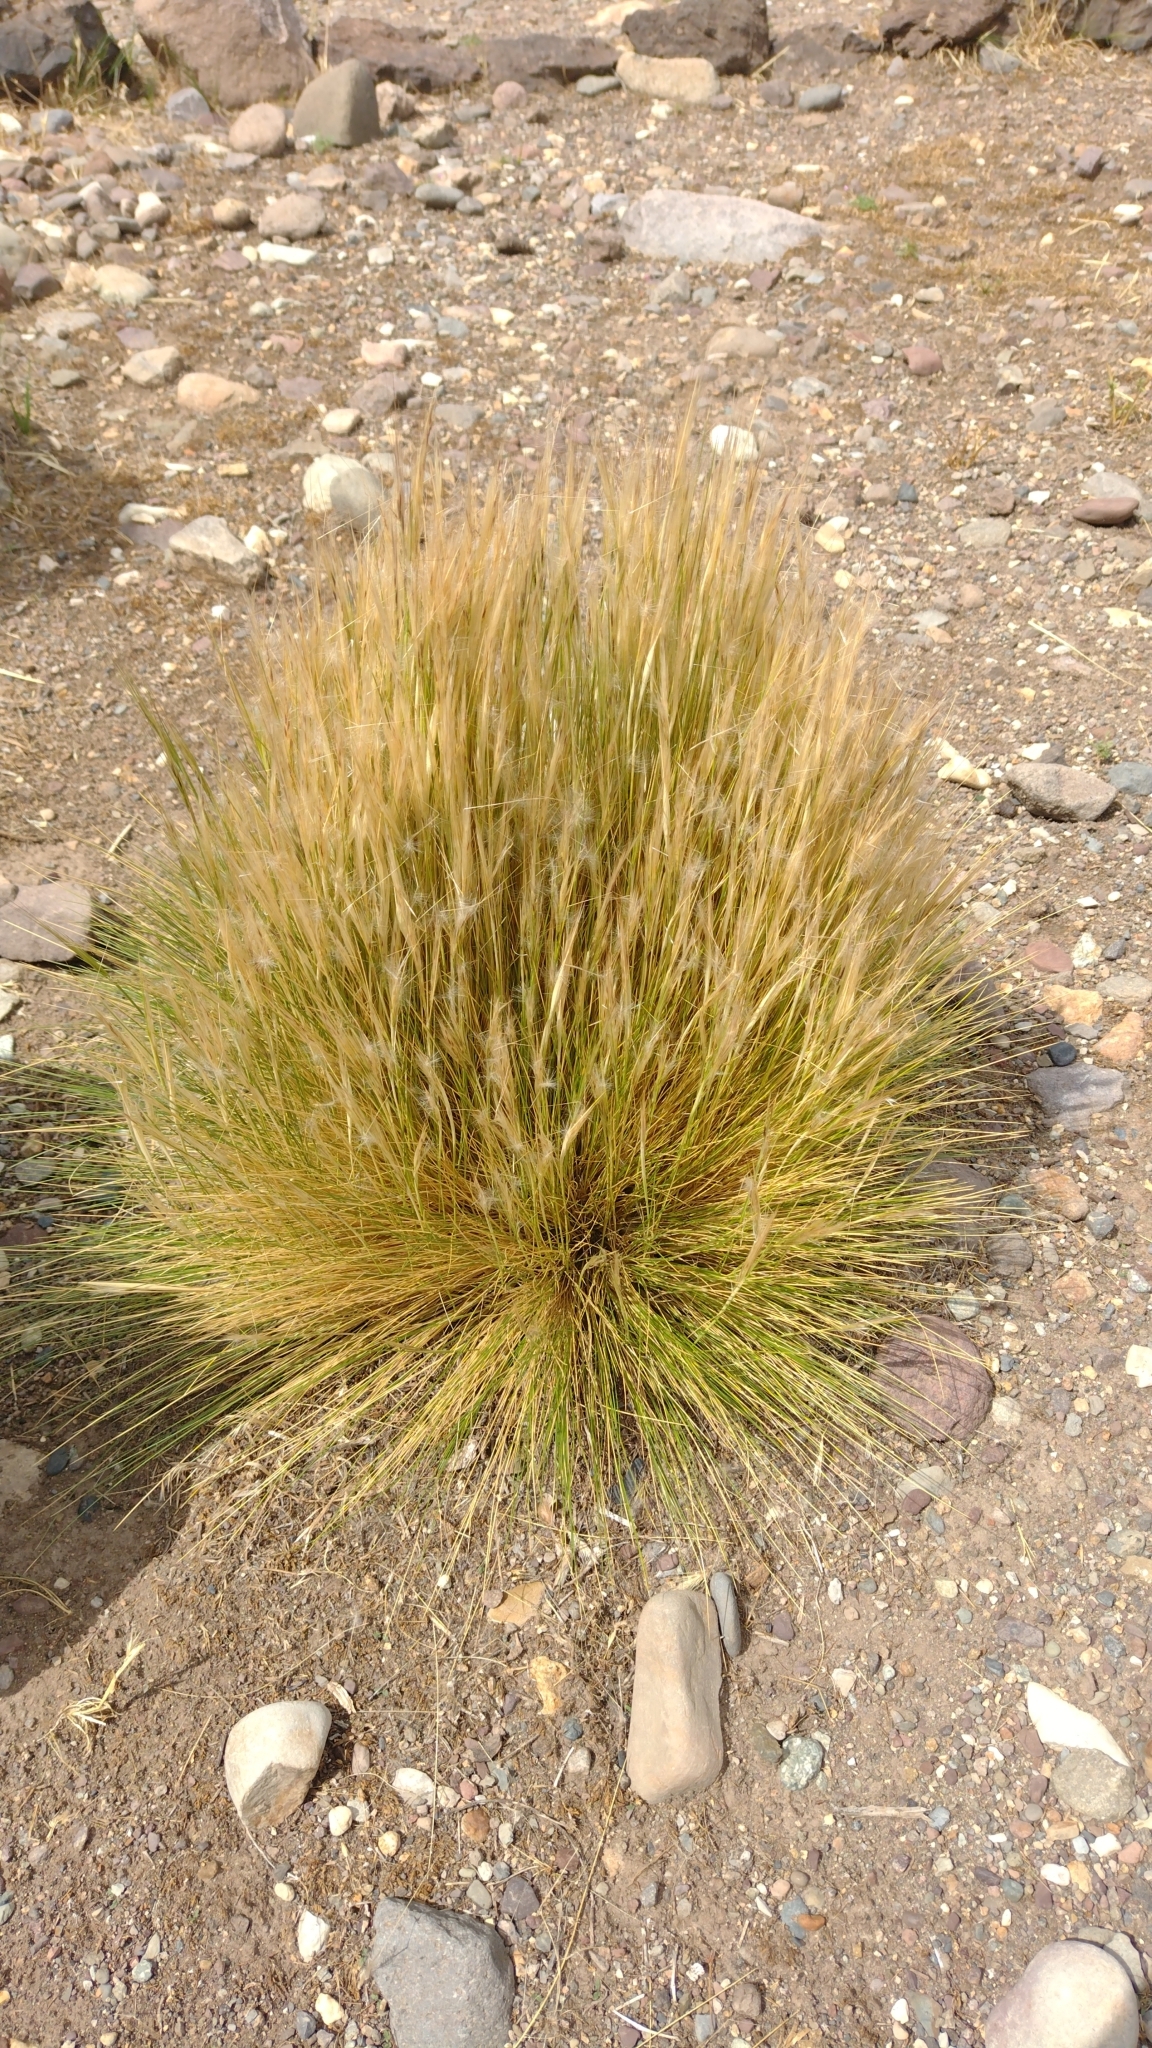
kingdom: Plantae
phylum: Tracheophyta
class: Liliopsida
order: Poales
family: Poaceae
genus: Pappostipa
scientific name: Pappostipa humilis
